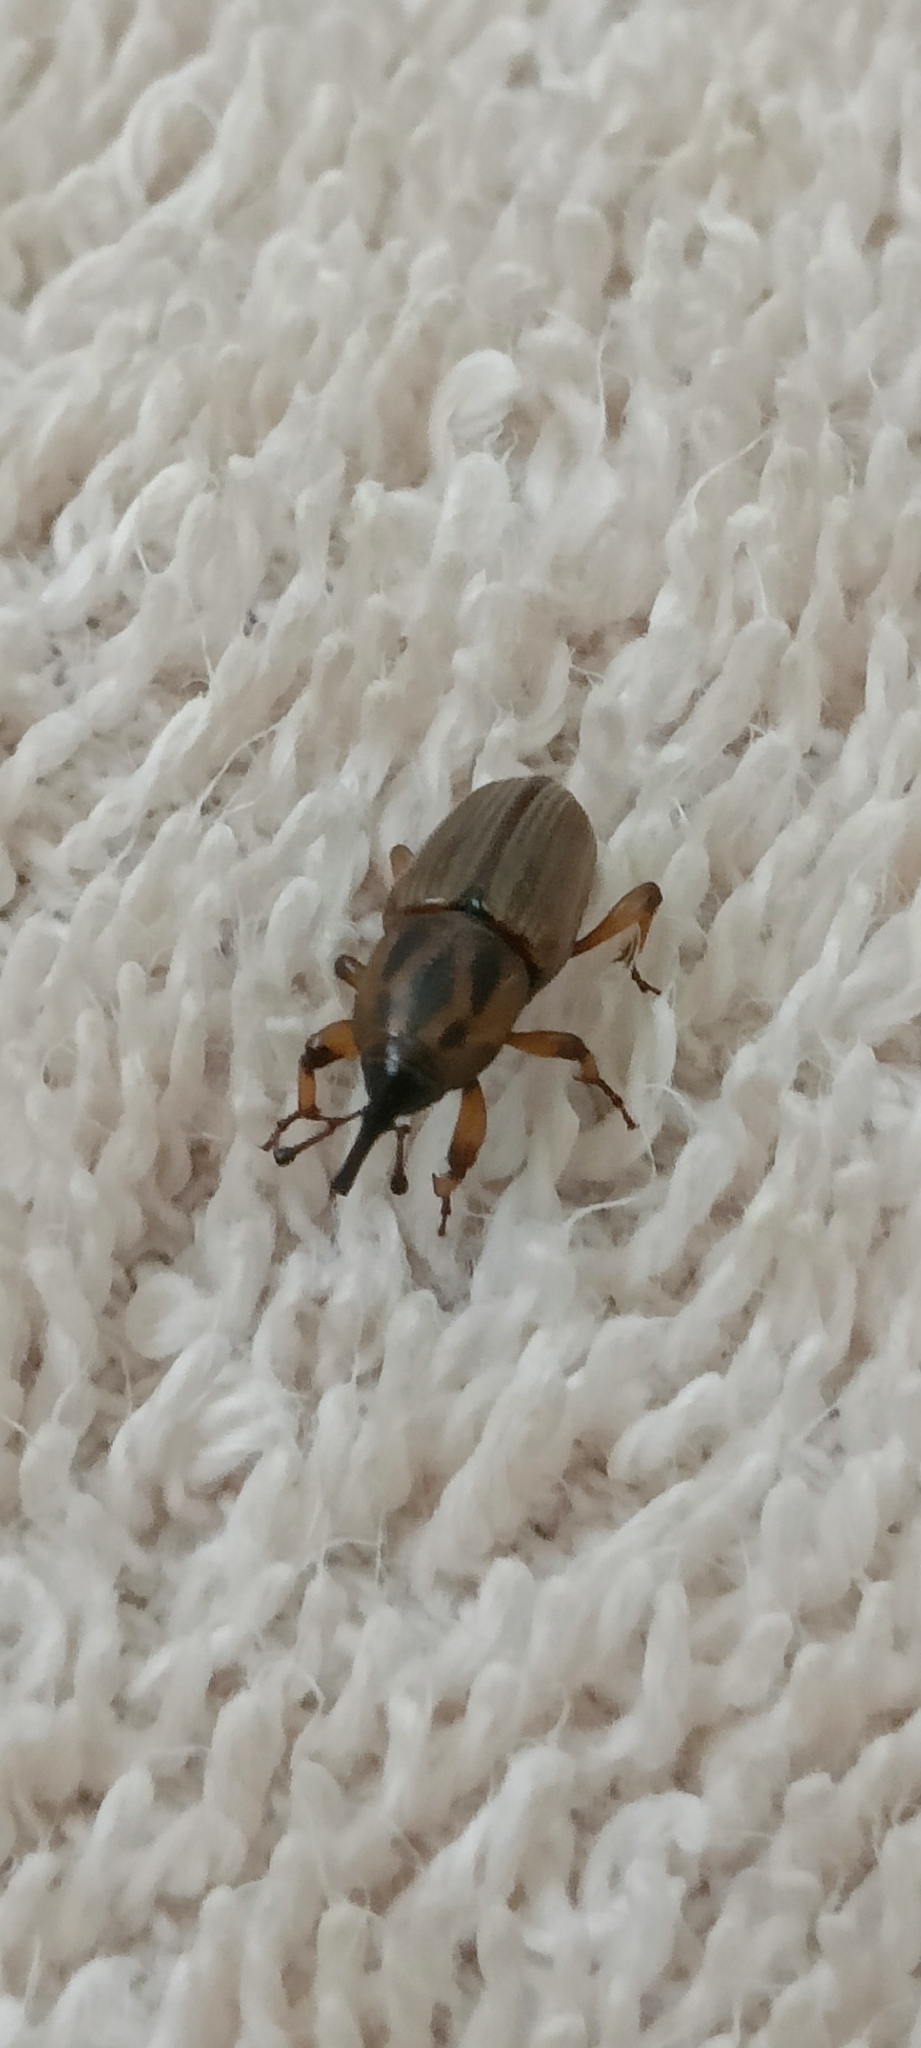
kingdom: Animalia
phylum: Arthropoda
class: Insecta
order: Coleoptera
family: Dryophthoridae
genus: Sphenophorus
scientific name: Sphenophorus brunnipennis
